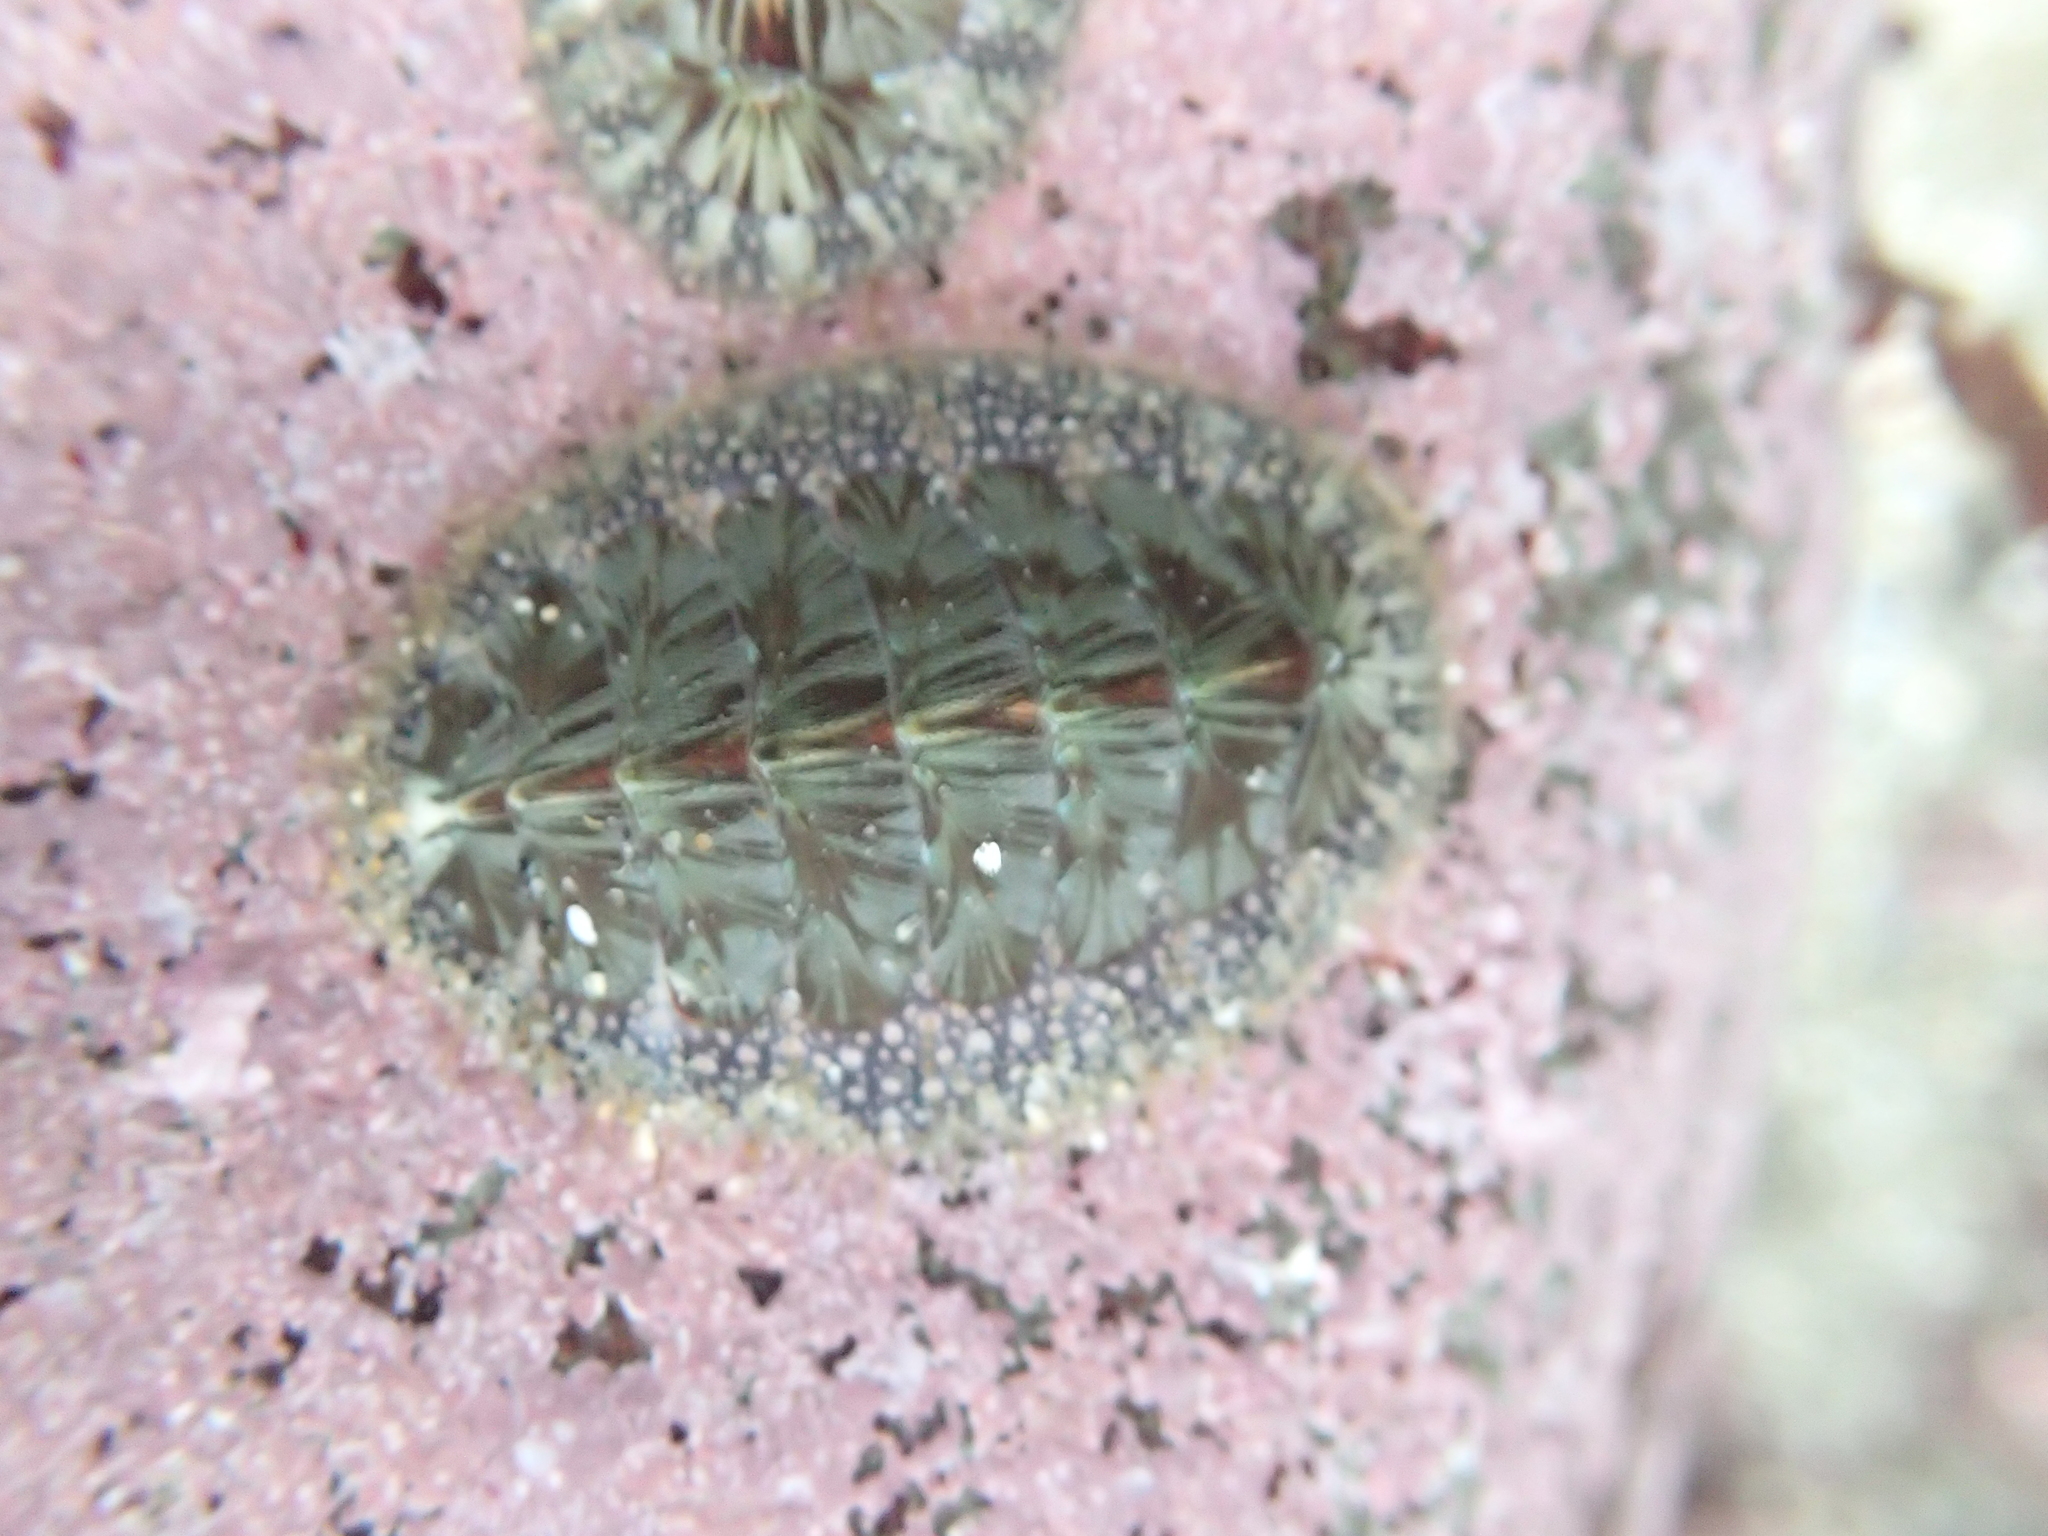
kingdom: Animalia
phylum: Mollusca
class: Polyplacophora
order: Chitonida
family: Mopaliidae
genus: Mopalia
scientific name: Mopalia lignosa
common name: Woody chiton
